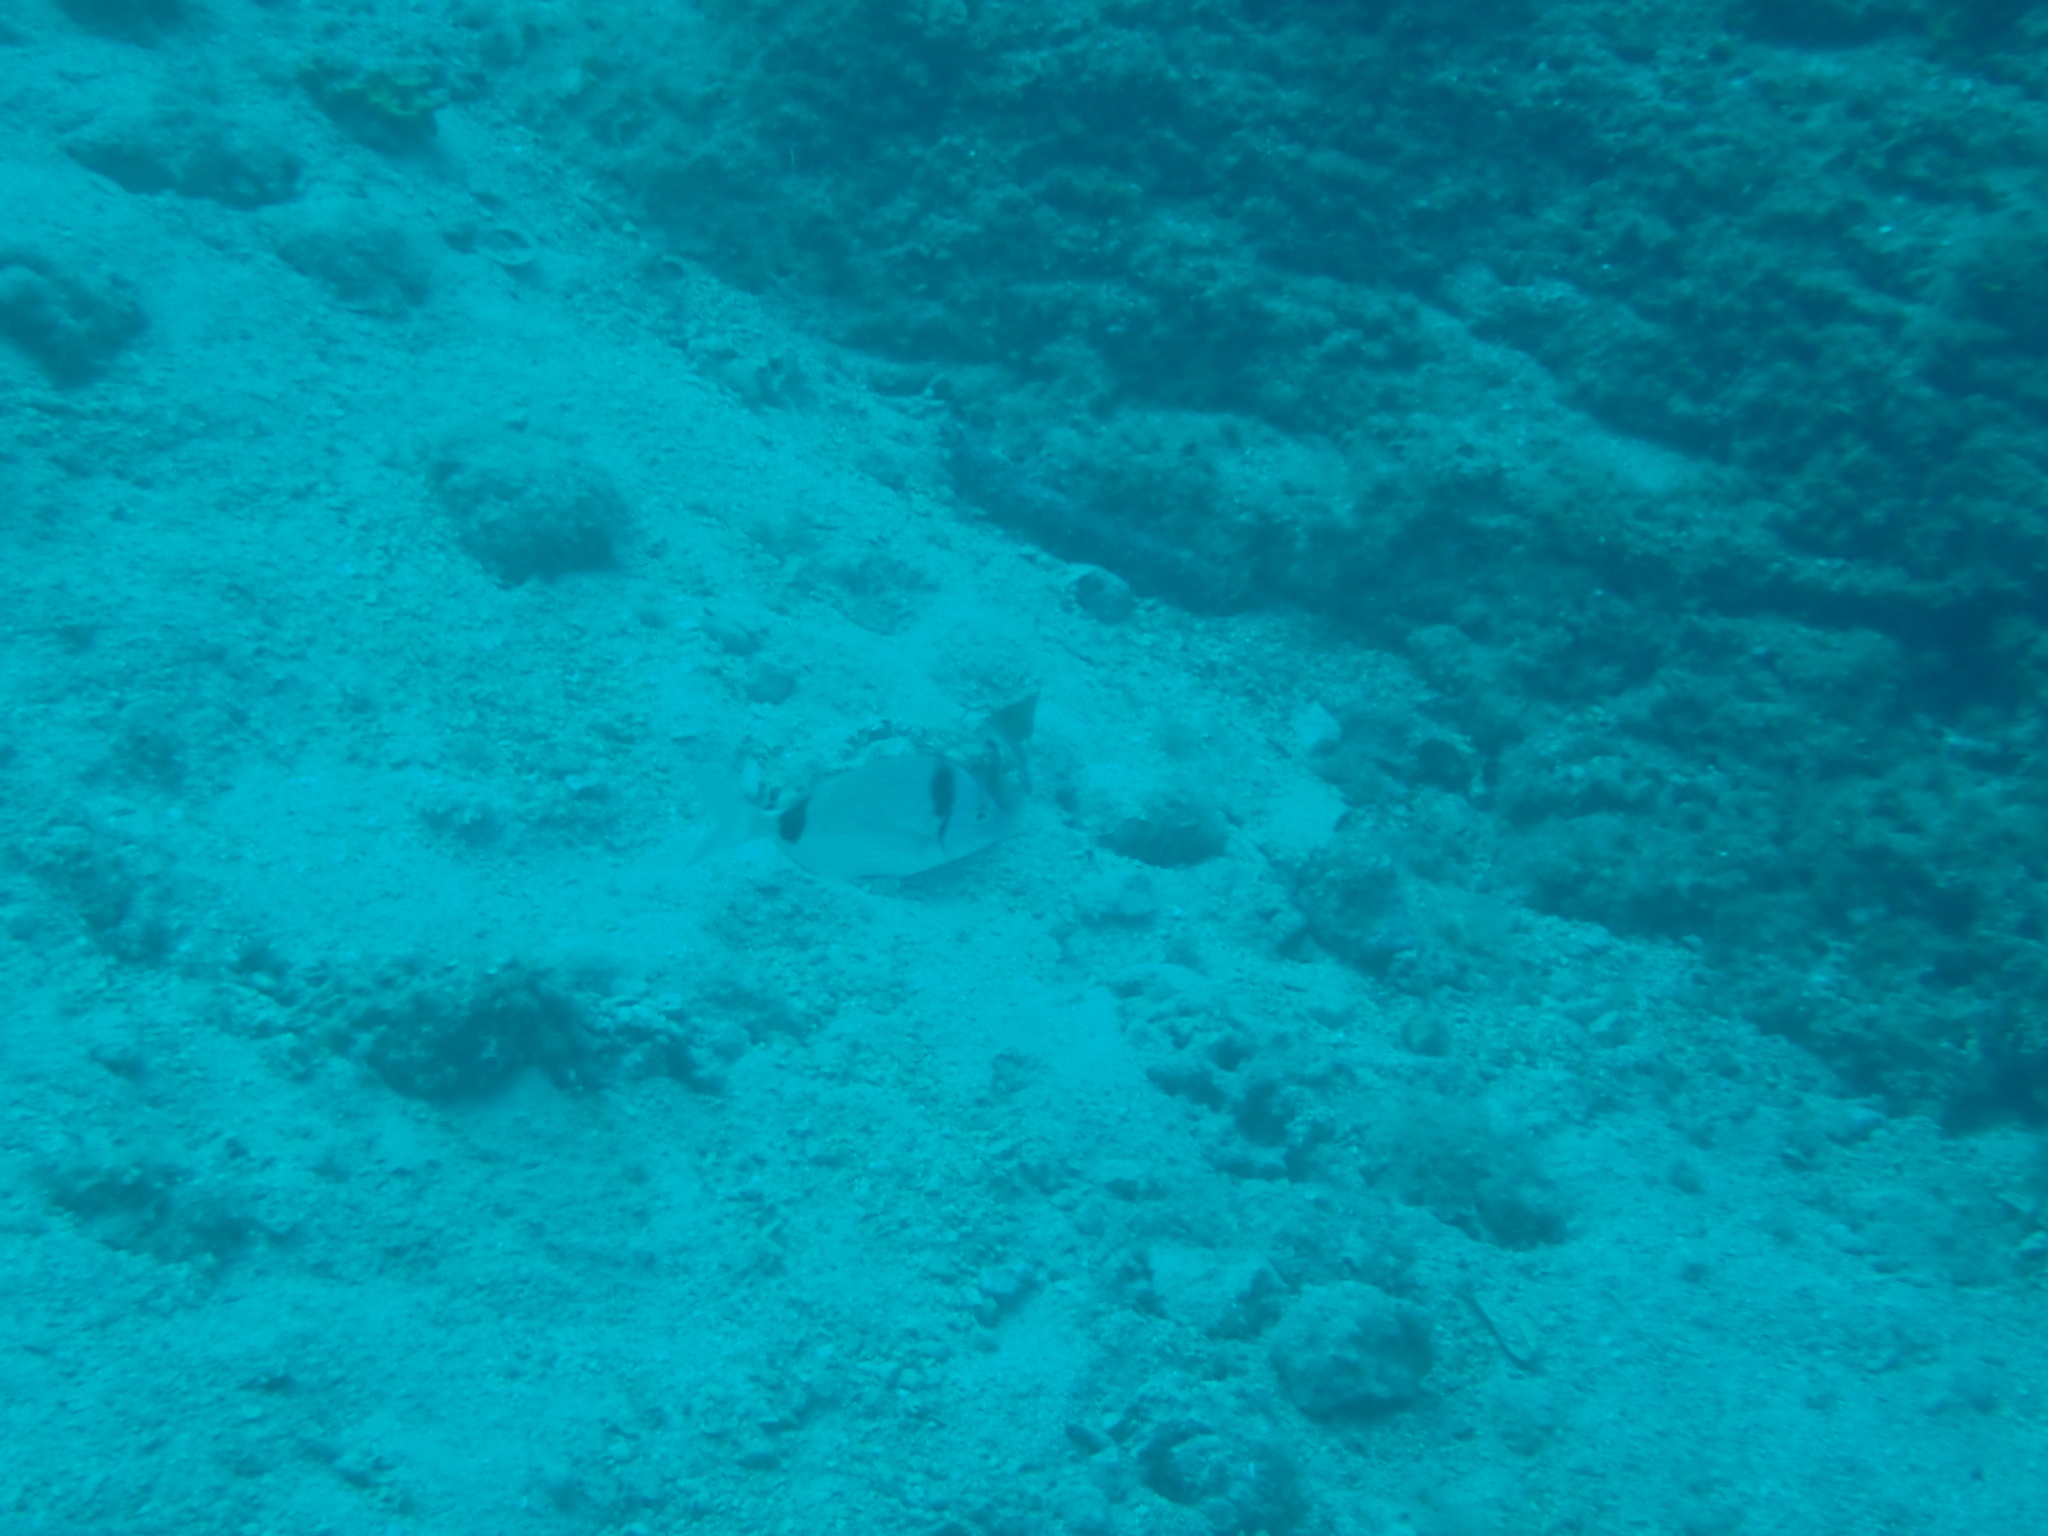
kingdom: Animalia
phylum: Chordata
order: Perciformes
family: Sparidae
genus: Diplodus
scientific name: Diplodus vulgaris
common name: Common two-banded seabream
